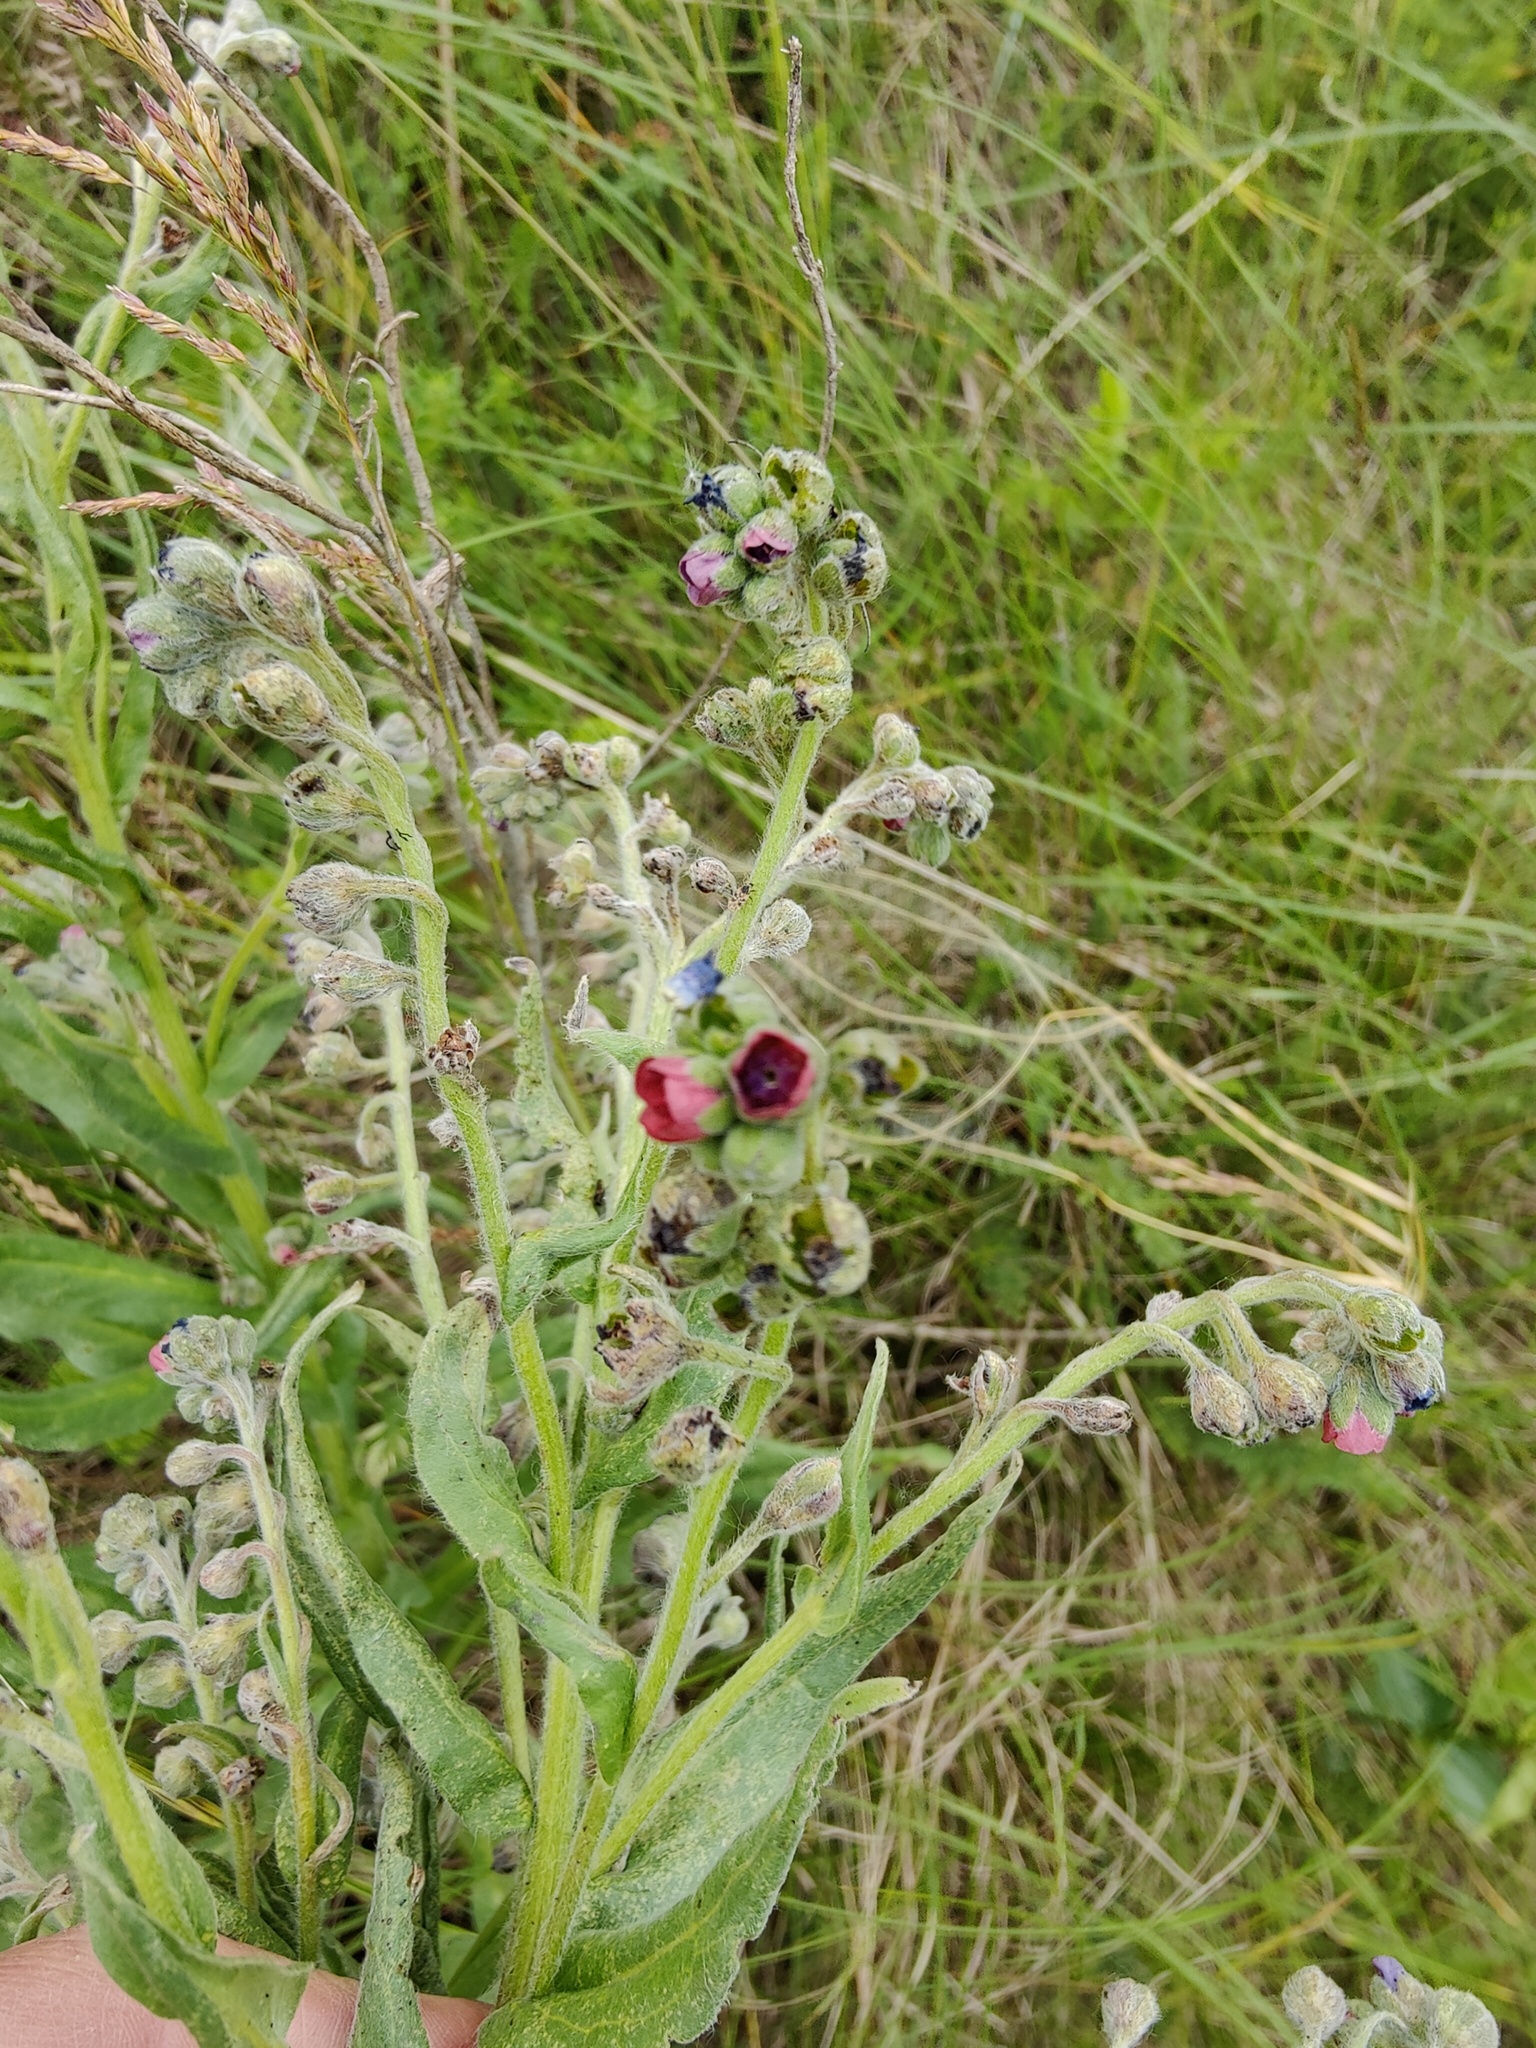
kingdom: Plantae
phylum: Tracheophyta
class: Magnoliopsida
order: Boraginales
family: Boraginaceae
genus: Cynoglossum
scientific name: Cynoglossum officinale
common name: Hound's-tongue
